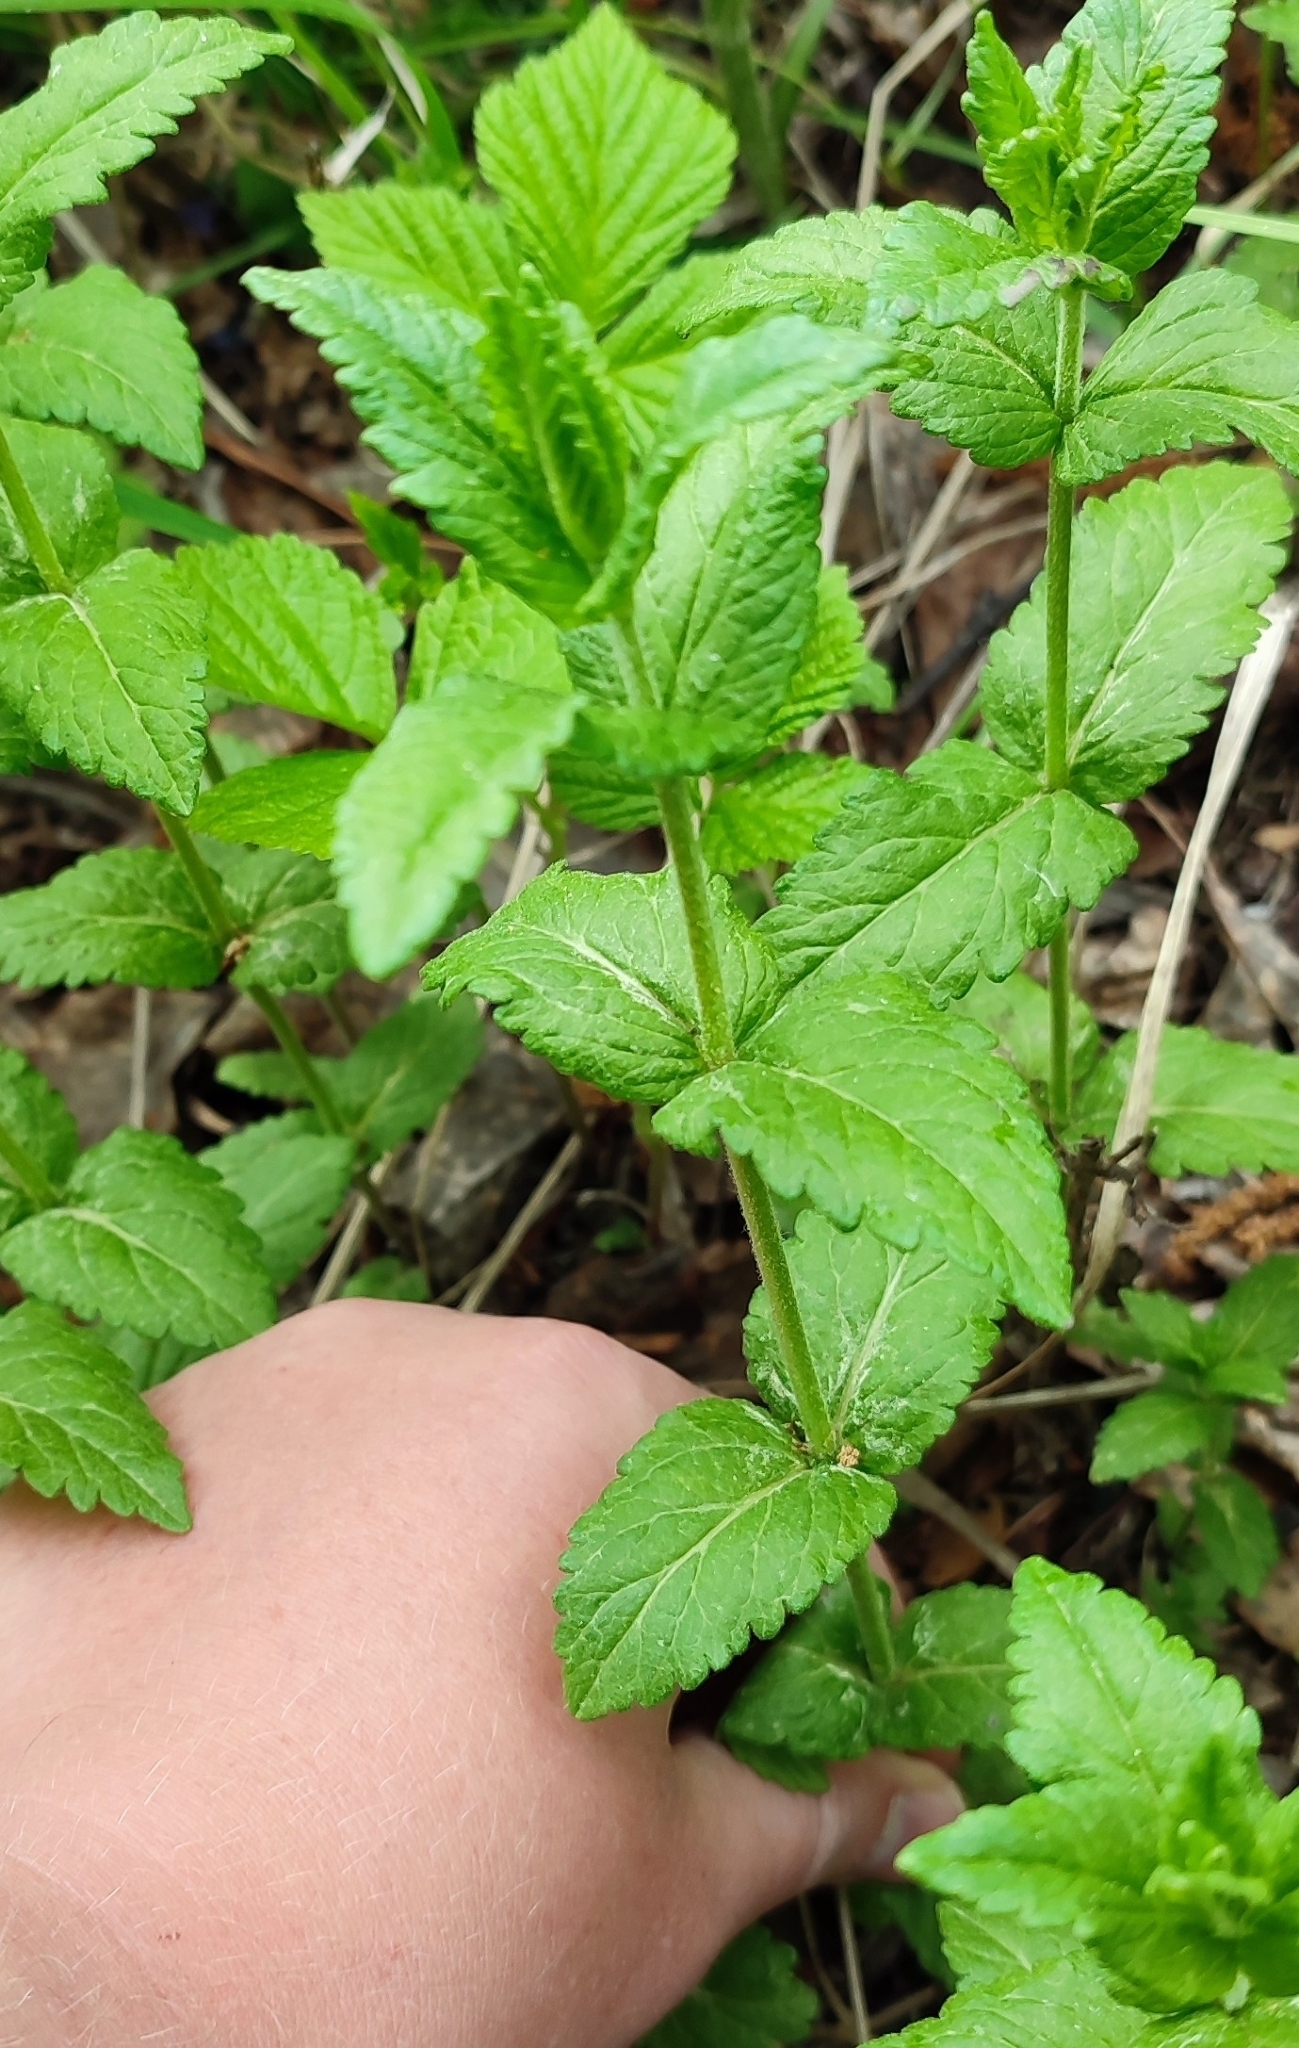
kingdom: Plantae
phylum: Tracheophyta
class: Magnoliopsida
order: Lamiales
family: Plantaginaceae
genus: Veronica
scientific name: Veronica teucrium
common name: Large speedwell
